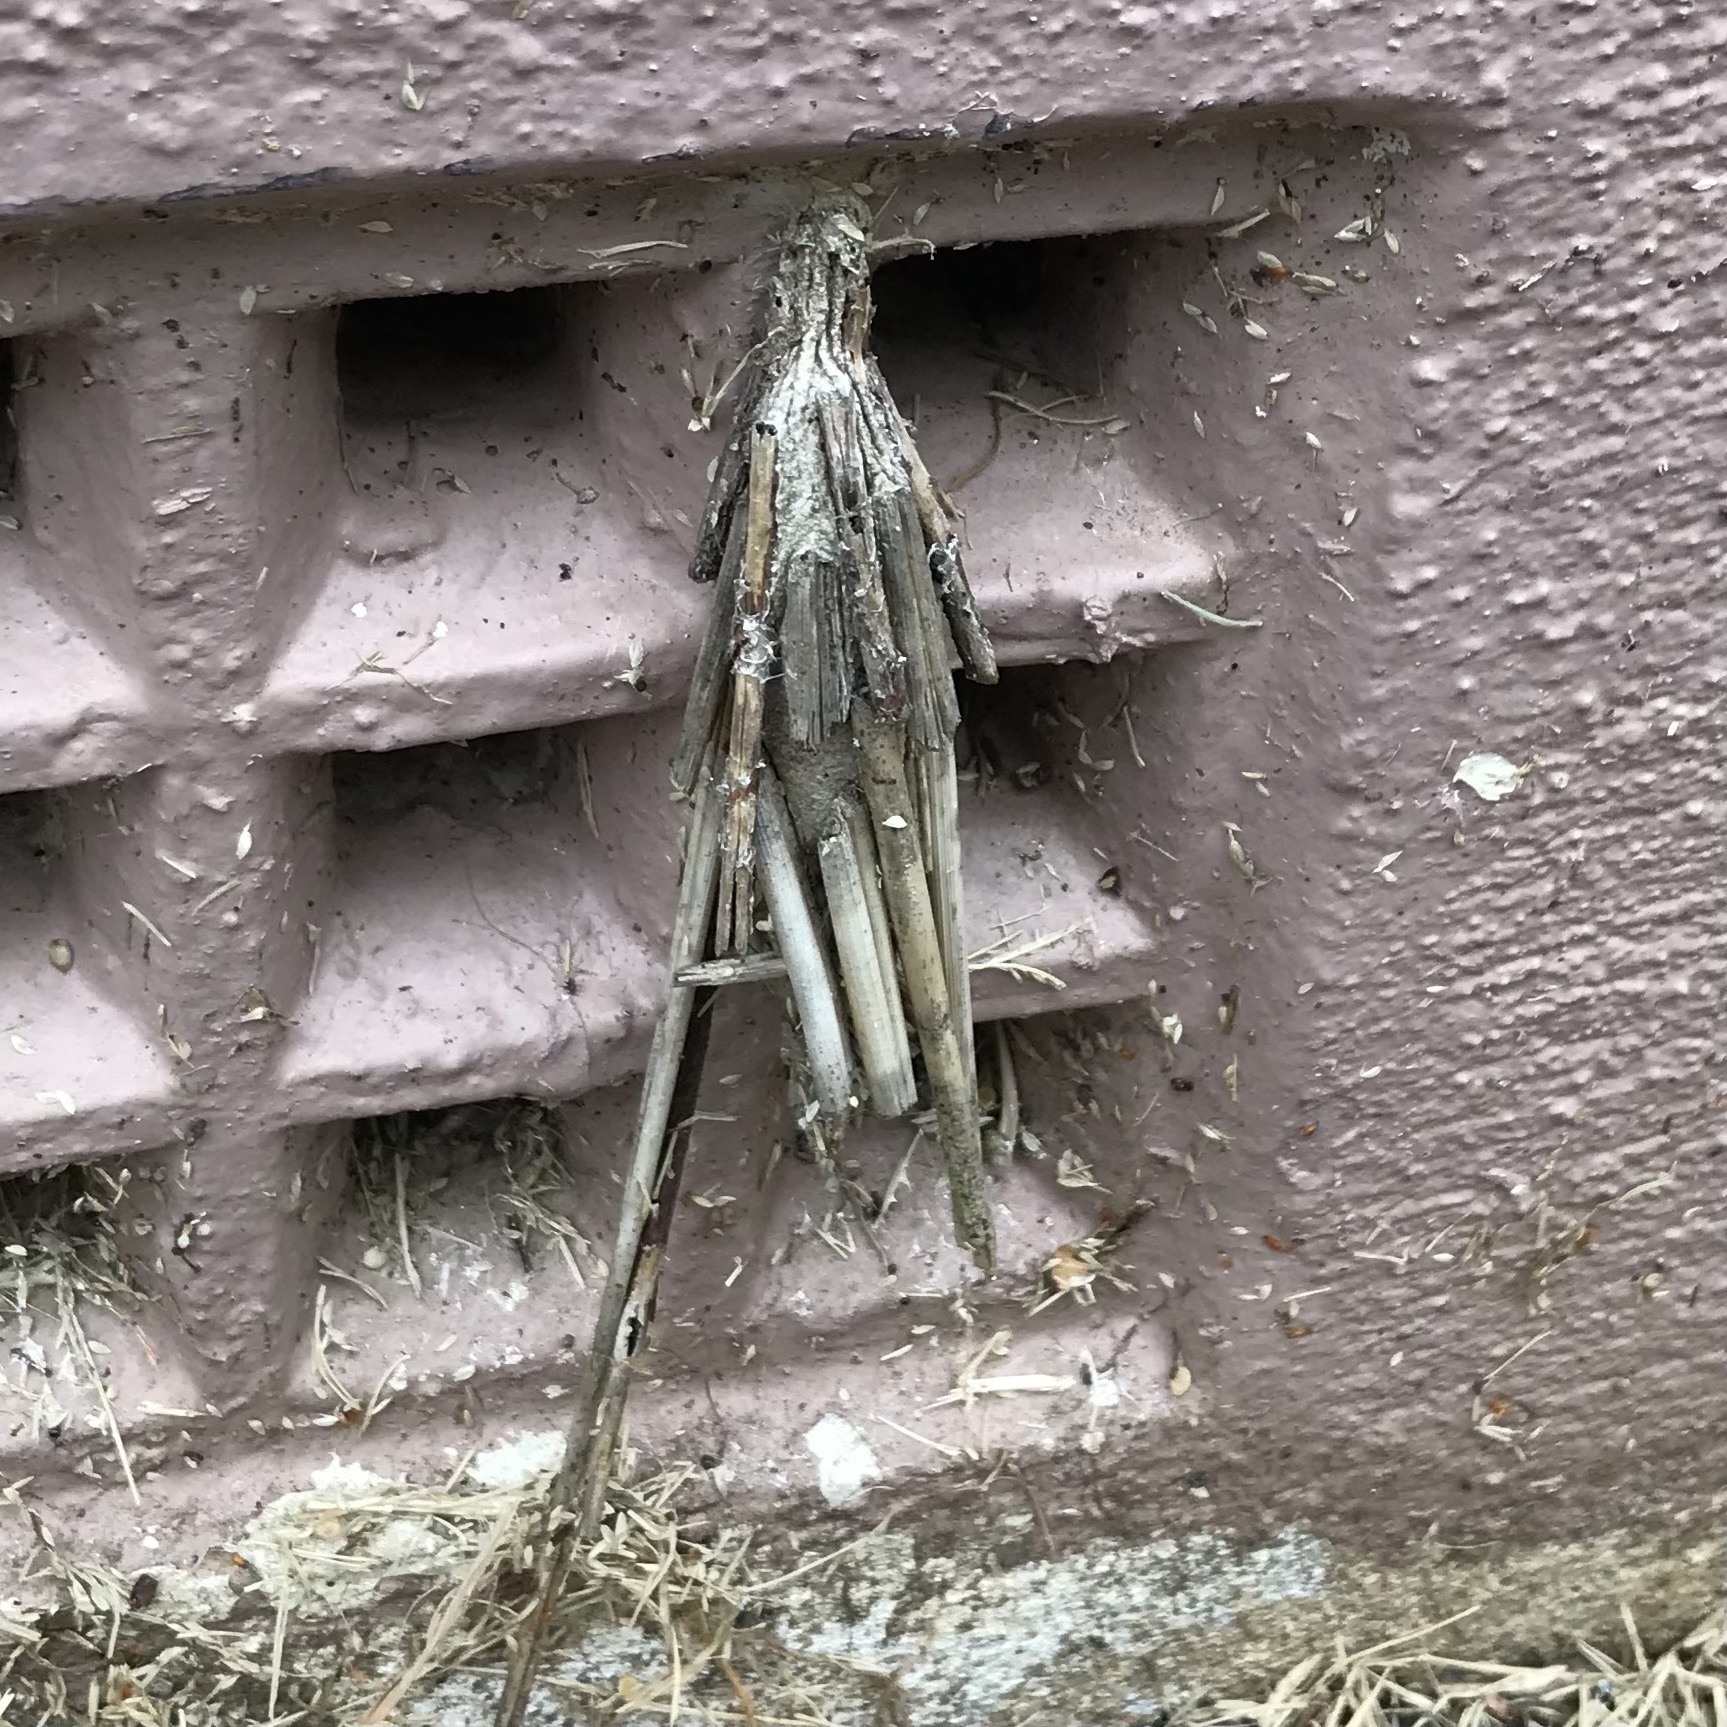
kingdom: Animalia
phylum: Arthropoda
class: Insecta
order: Lepidoptera
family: Psychidae
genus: Metura
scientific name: Metura elongatus
